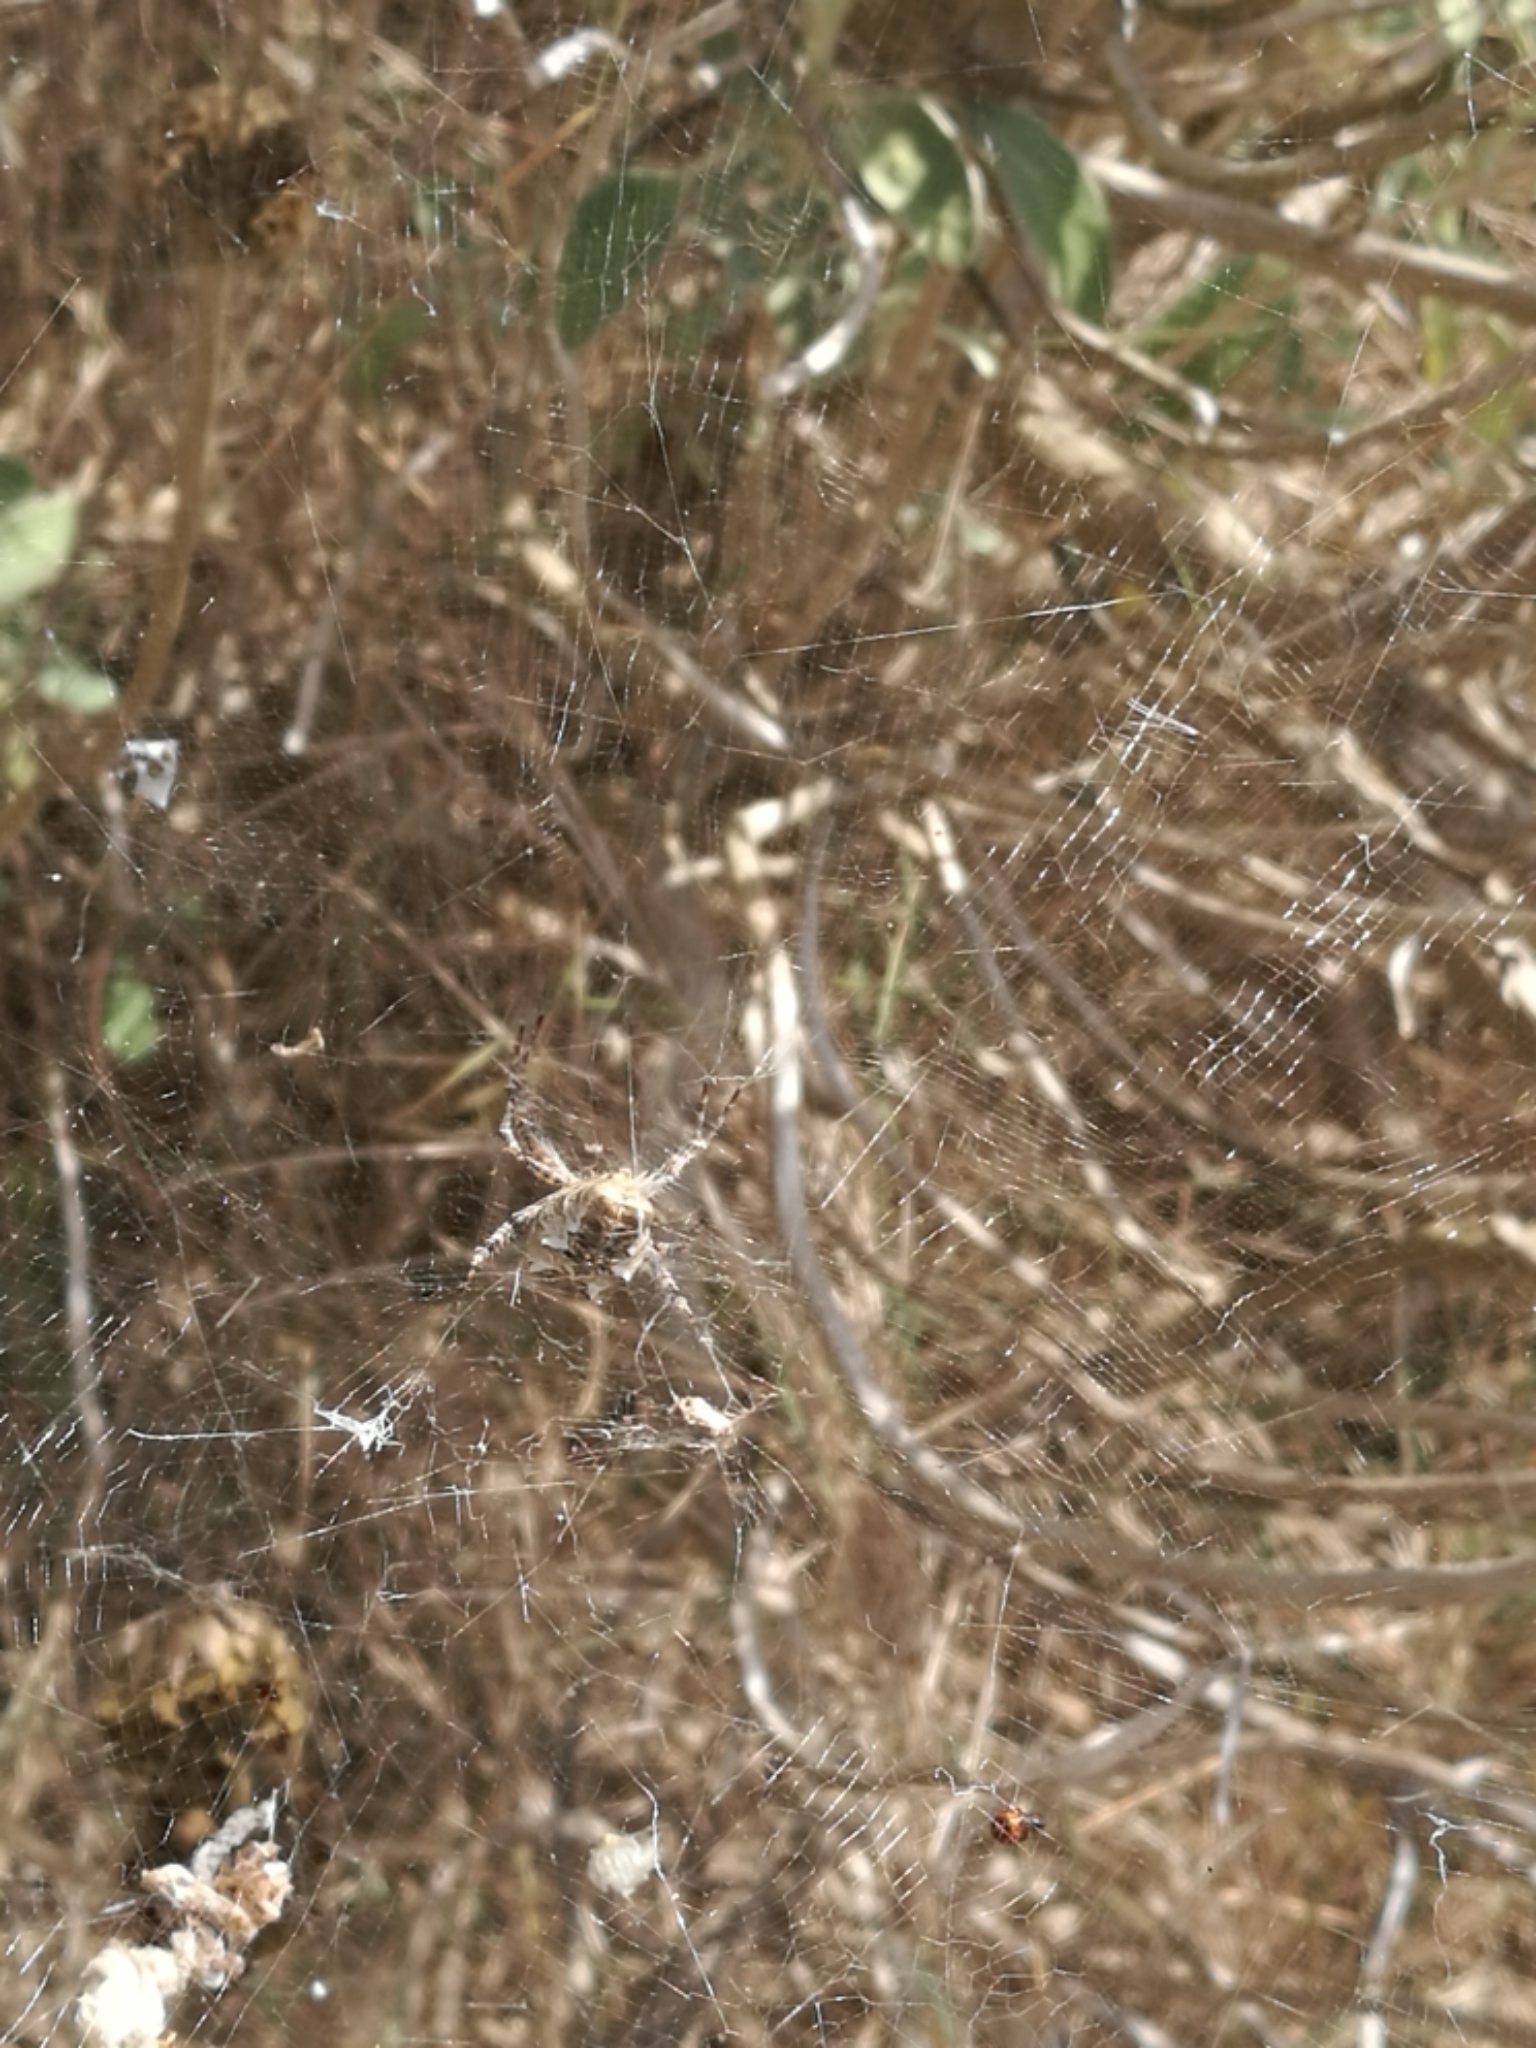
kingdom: Animalia
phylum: Arthropoda
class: Arachnida
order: Araneae
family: Araneidae
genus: Cyrtophora
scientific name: Cyrtophora citricola
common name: Orb weavers
